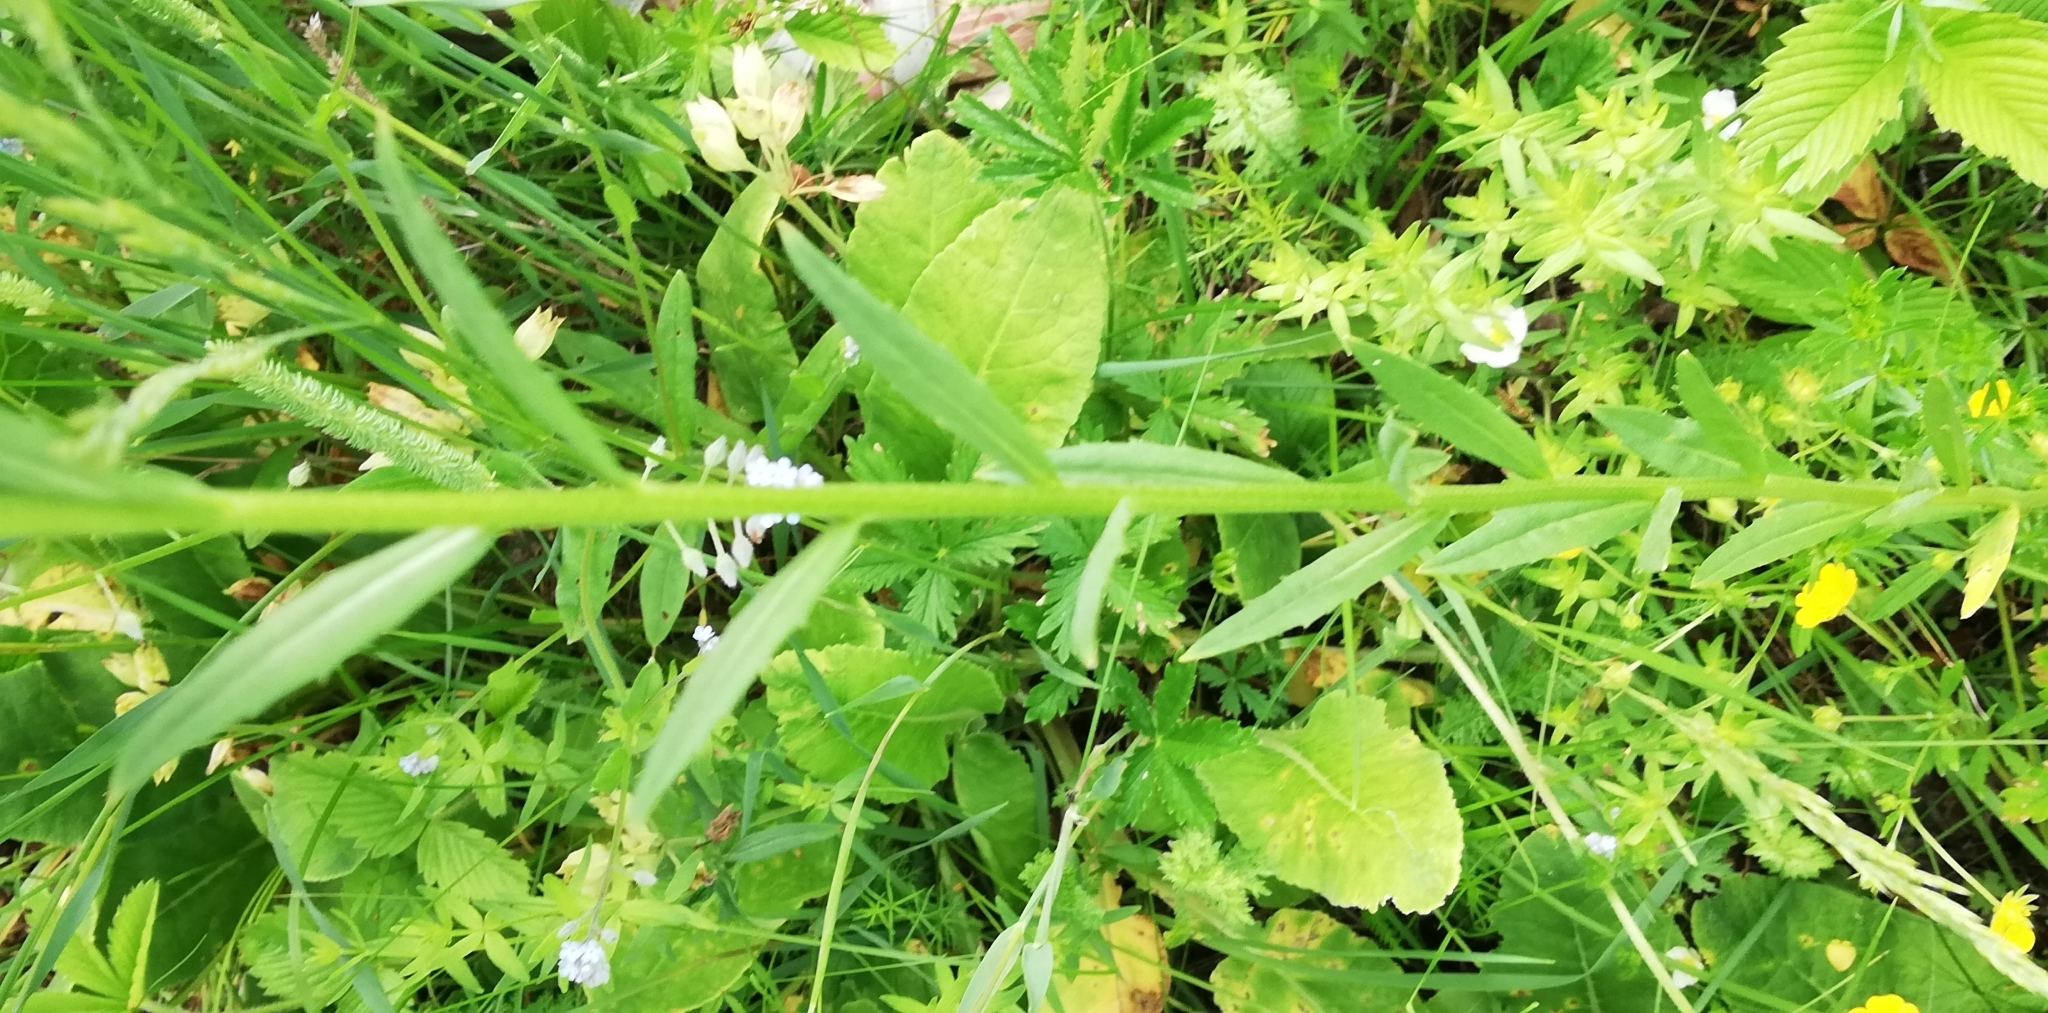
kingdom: Plantae
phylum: Tracheophyta
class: Magnoliopsida
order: Brassicales
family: Brassicaceae
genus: Erysimum
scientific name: Erysimum cheiranthoides
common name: Treacle mustard
